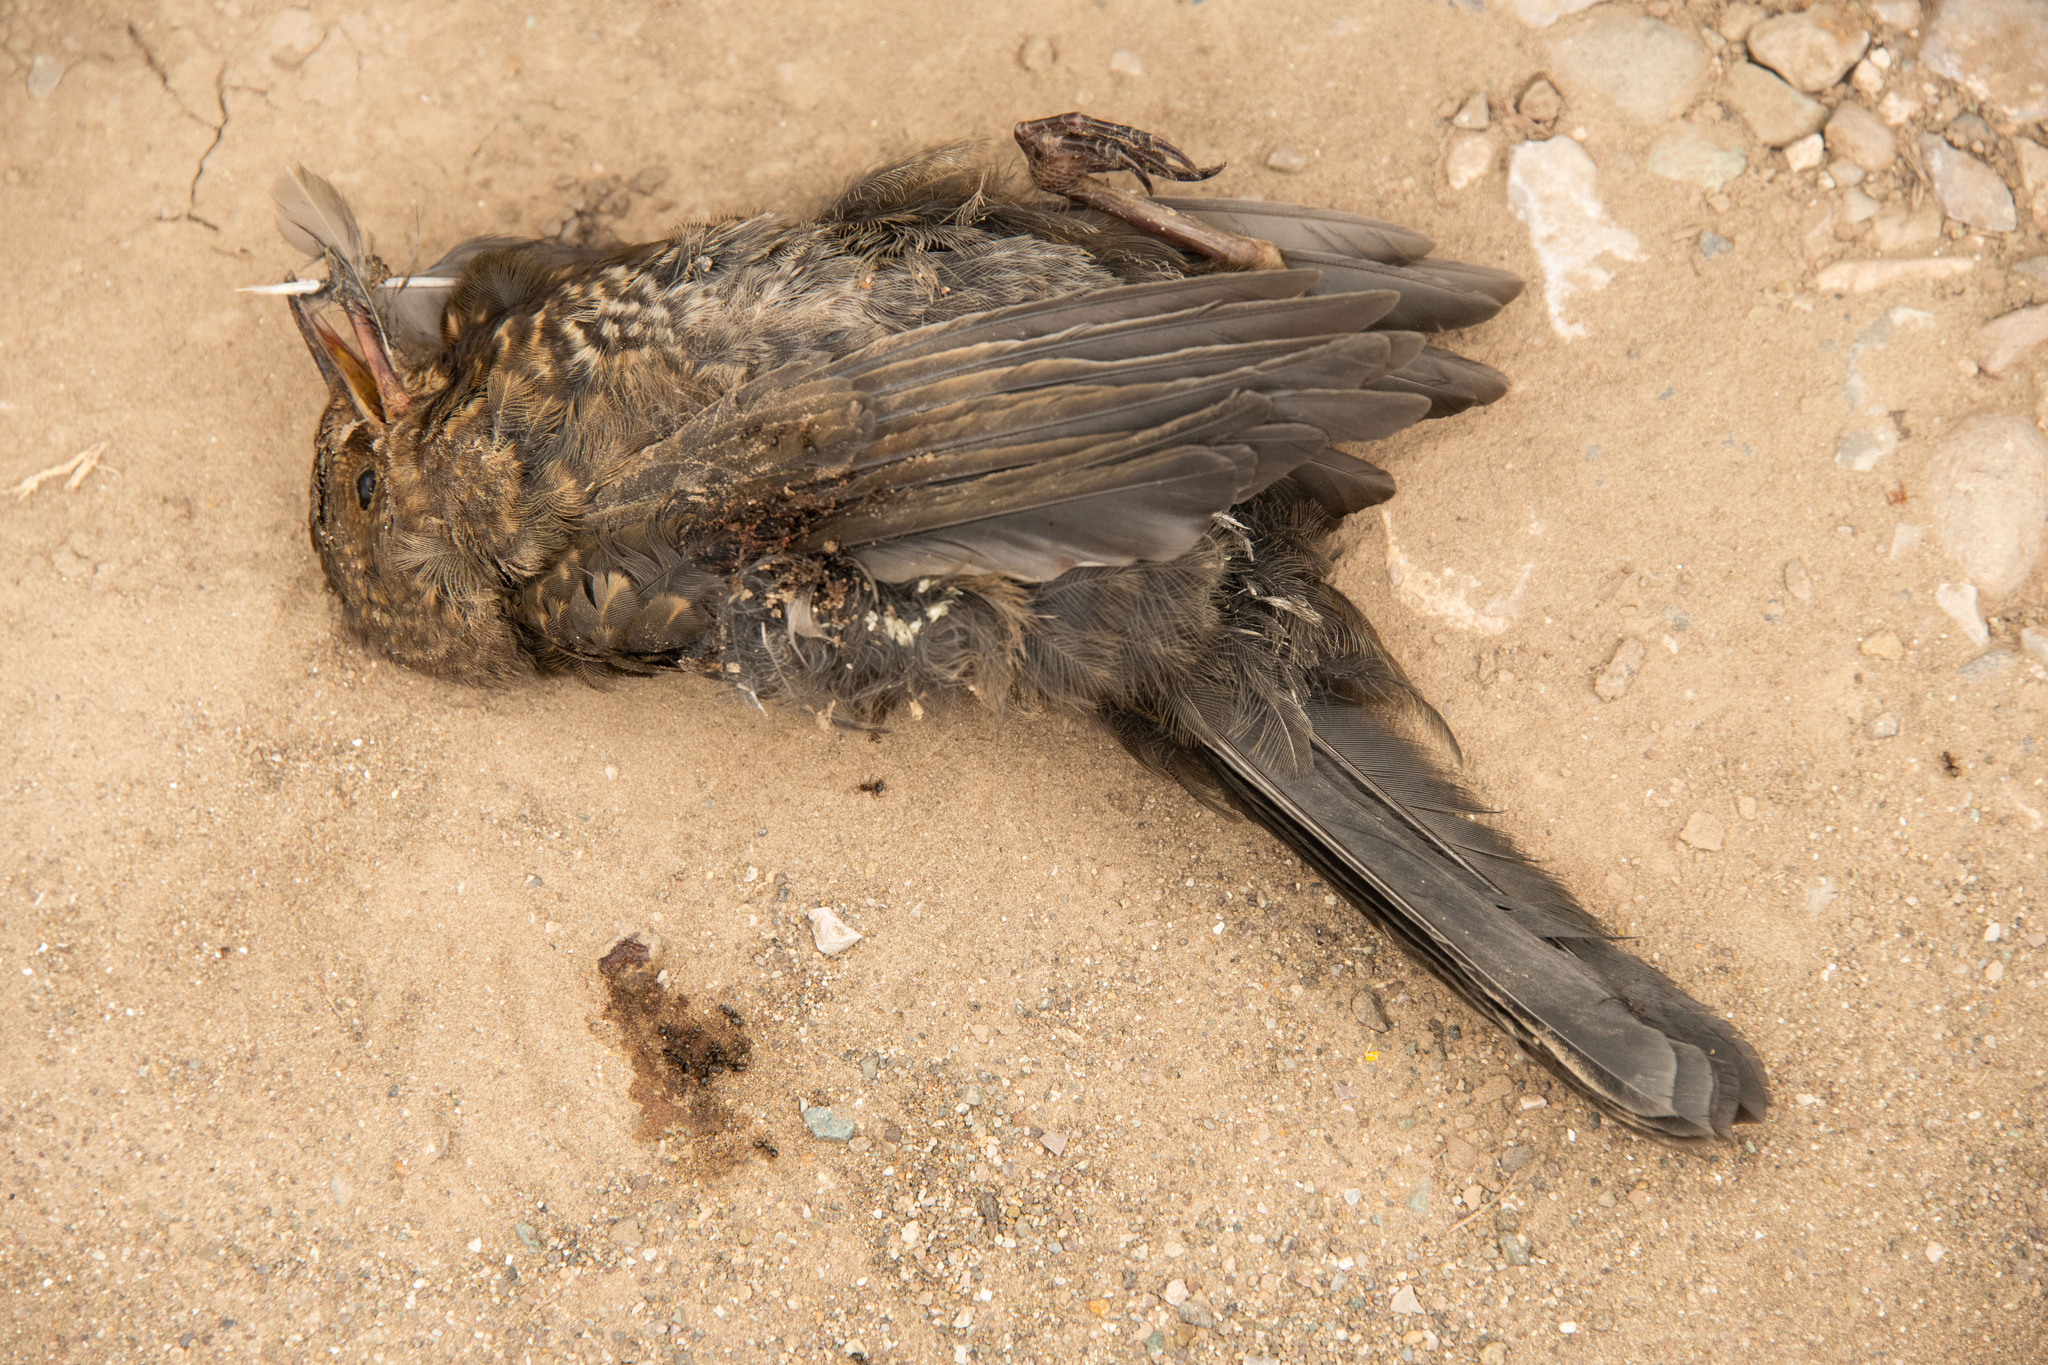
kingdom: Animalia
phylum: Chordata
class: Aves
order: Passeriformes
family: Turdidae
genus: Turdus
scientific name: Turdus merula
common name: Common blackbird
